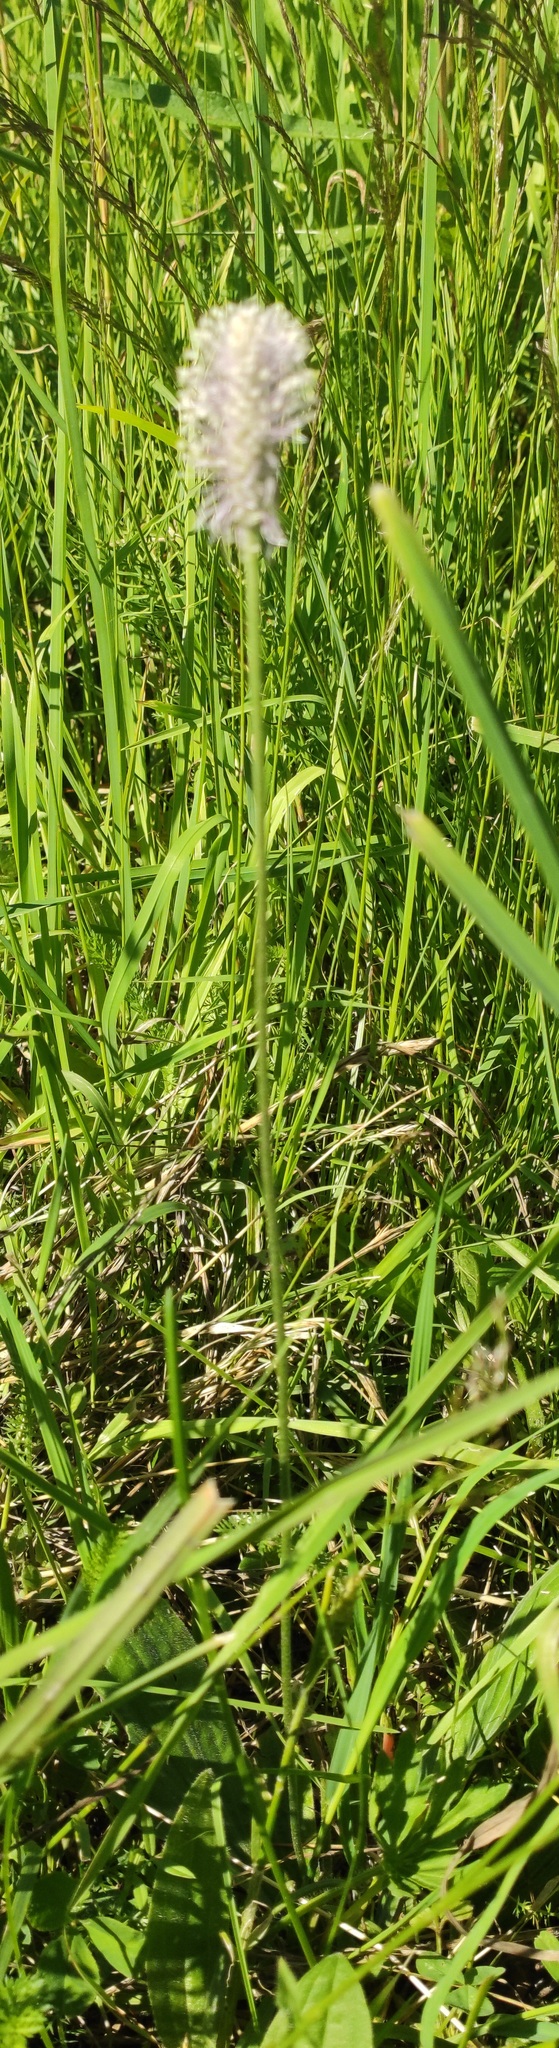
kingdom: Plantae
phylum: Tracheophyta
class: Magnoliopsida
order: Lamiales
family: Plantaginaceae
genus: Plantago
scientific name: Plantago media
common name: Hoary plantain
